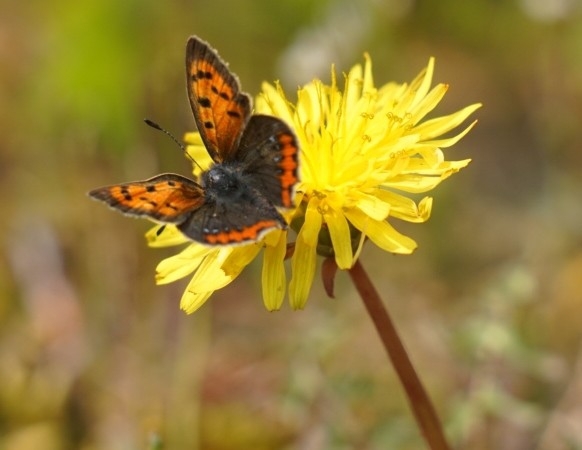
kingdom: Animalia
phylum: Arthropoda
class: Insecta
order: Lepidoptera
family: Lycaenidae
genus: Lycaena
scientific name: Lycaena phlaeas
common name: Small copper
